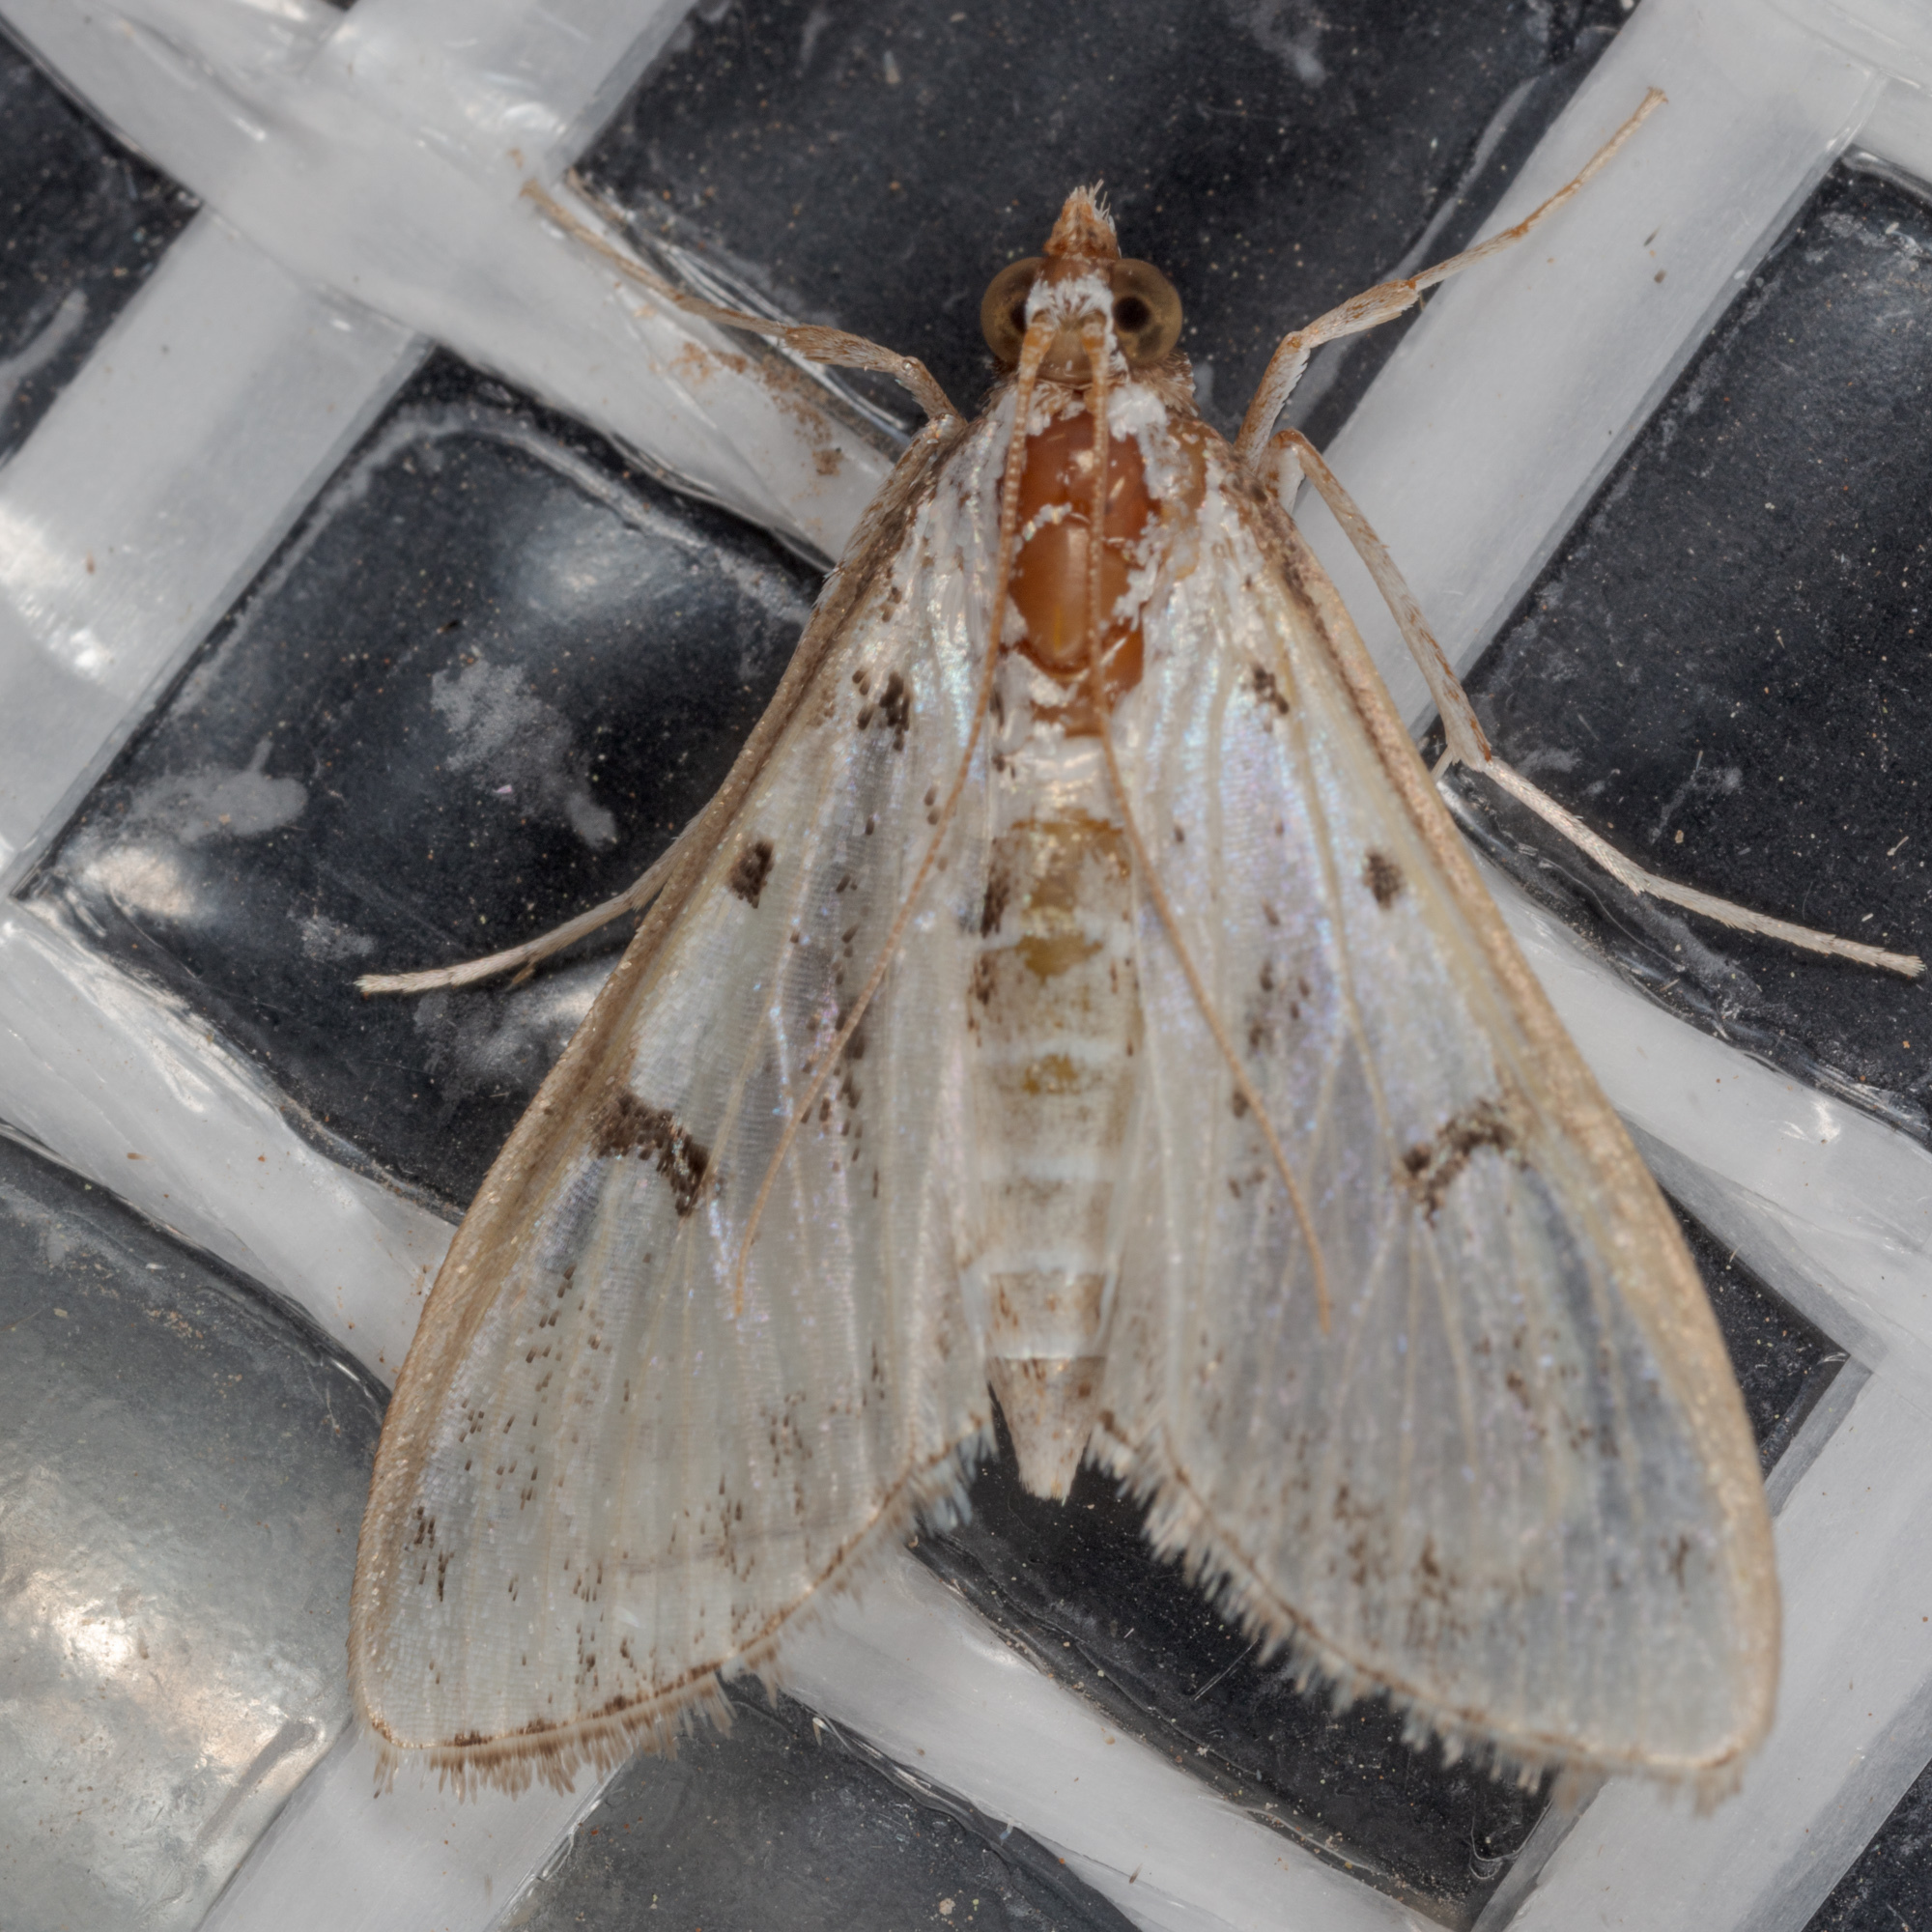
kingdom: Animalia
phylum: Arthropoda
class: Insecta
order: Lepidoptera
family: Crambidae
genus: Palpita
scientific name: Palpita gracilalis
